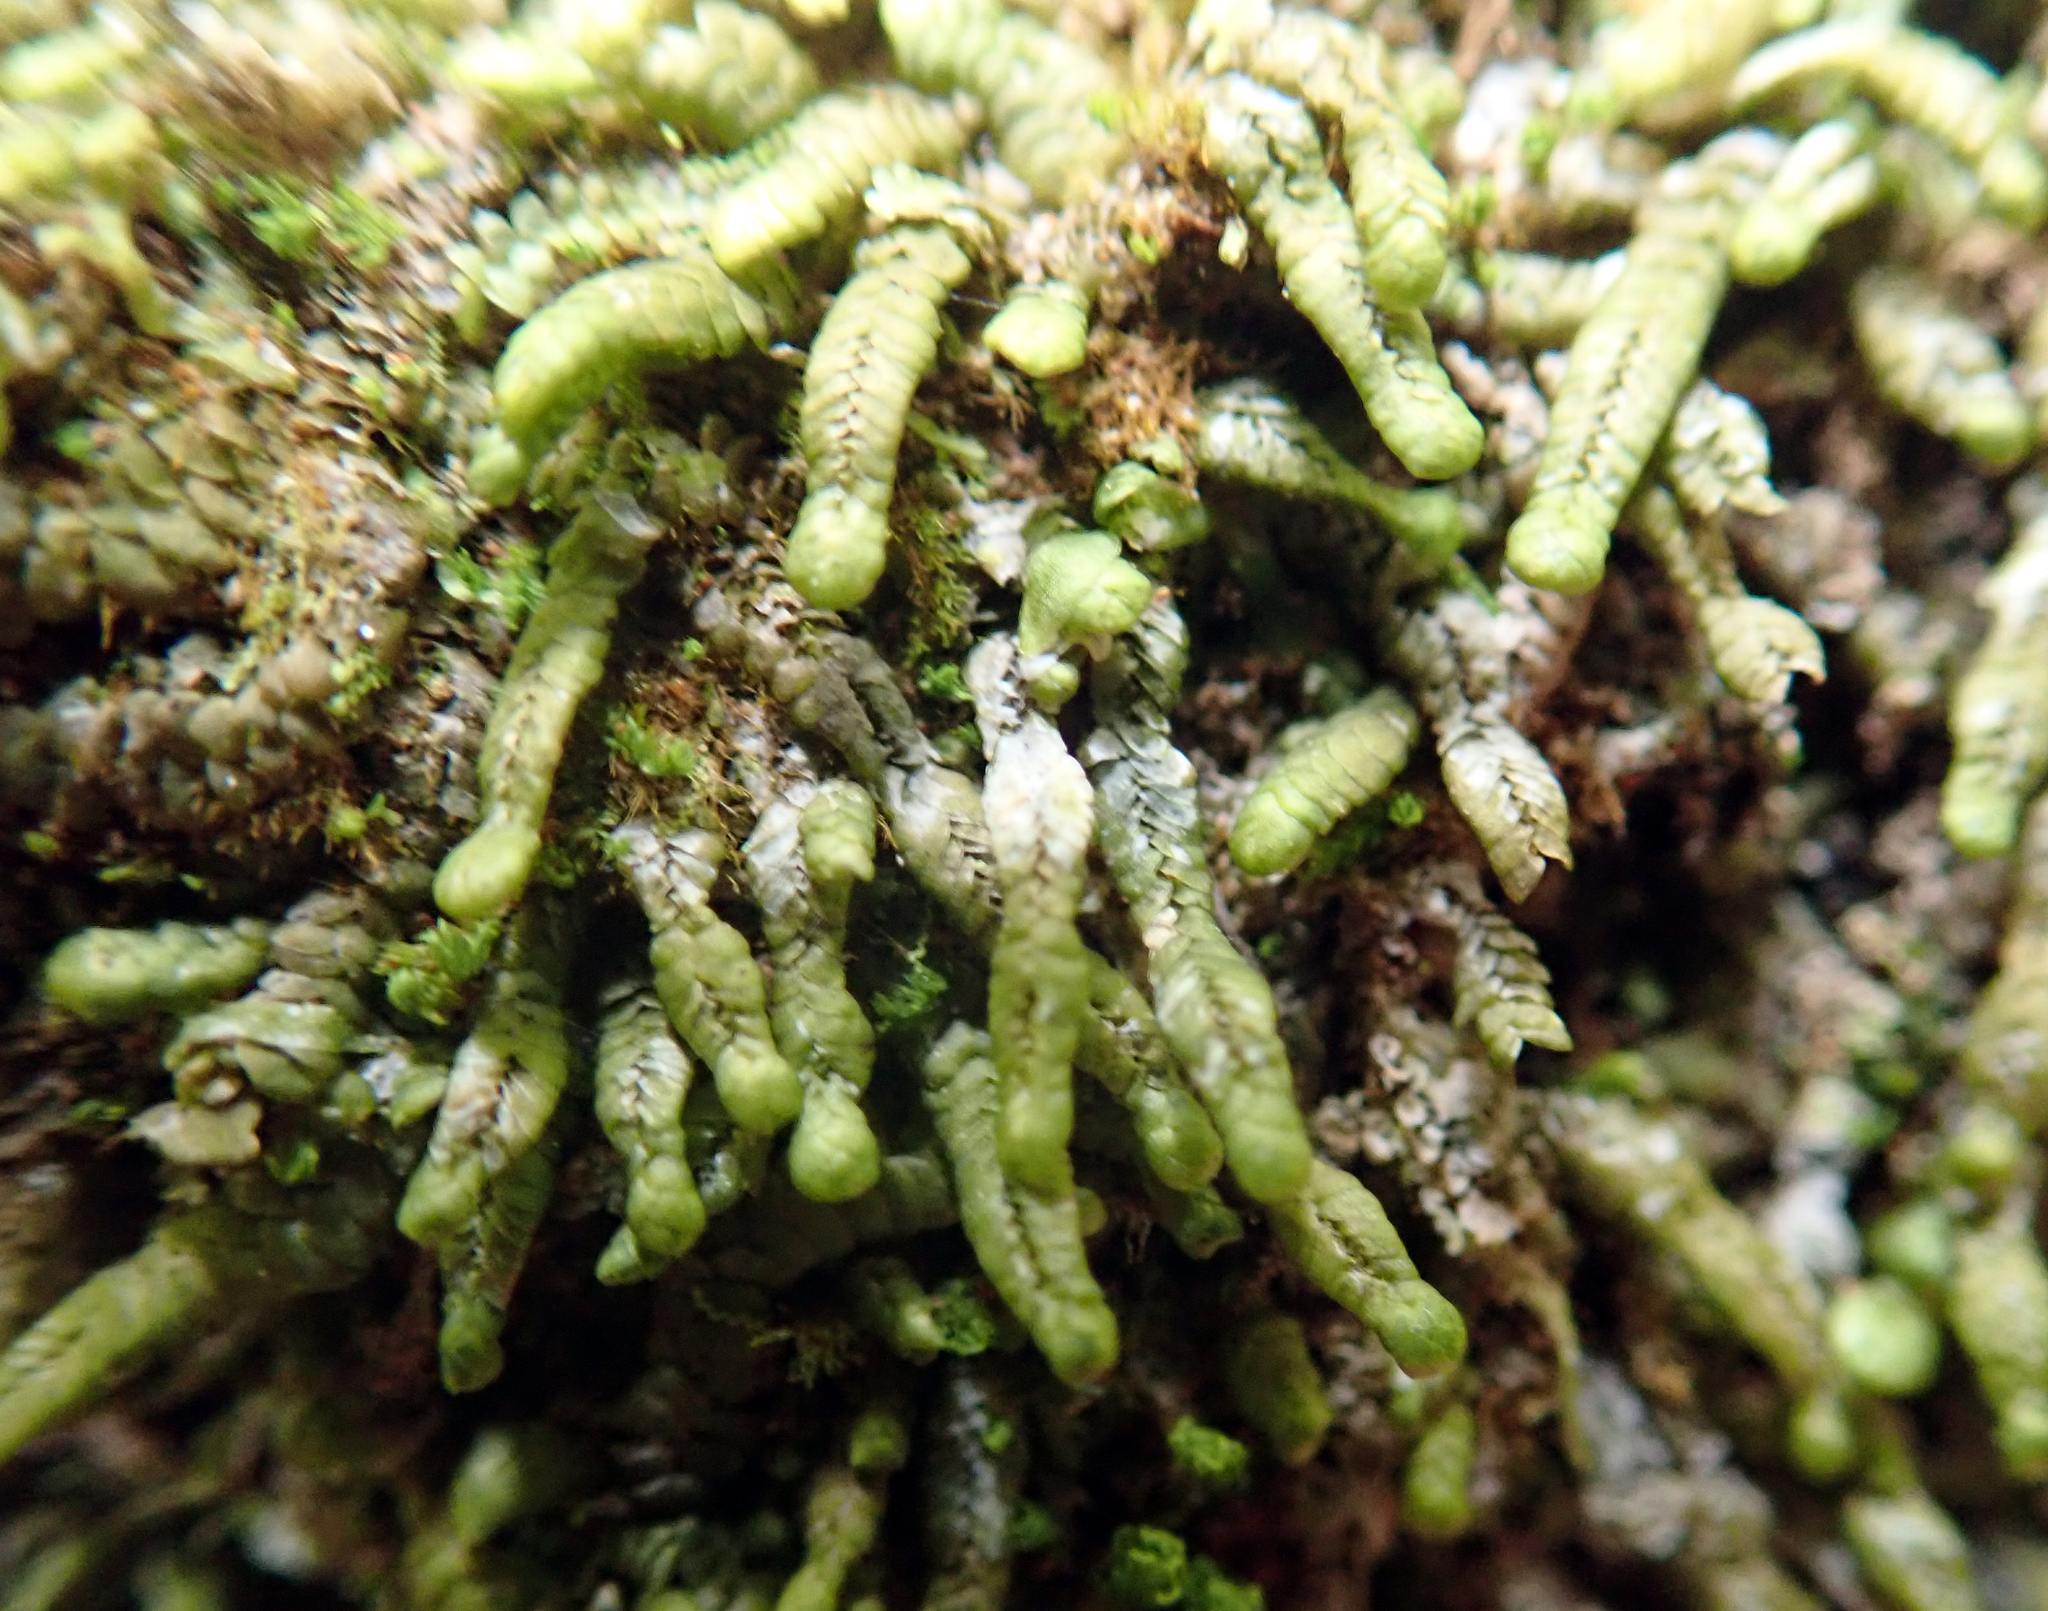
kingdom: Plantae
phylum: Marchantiophyta
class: Jungermanniopsida
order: Porellales
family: Lejeuneaceae
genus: Thysananthus
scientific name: Thysananthus anguiformis
